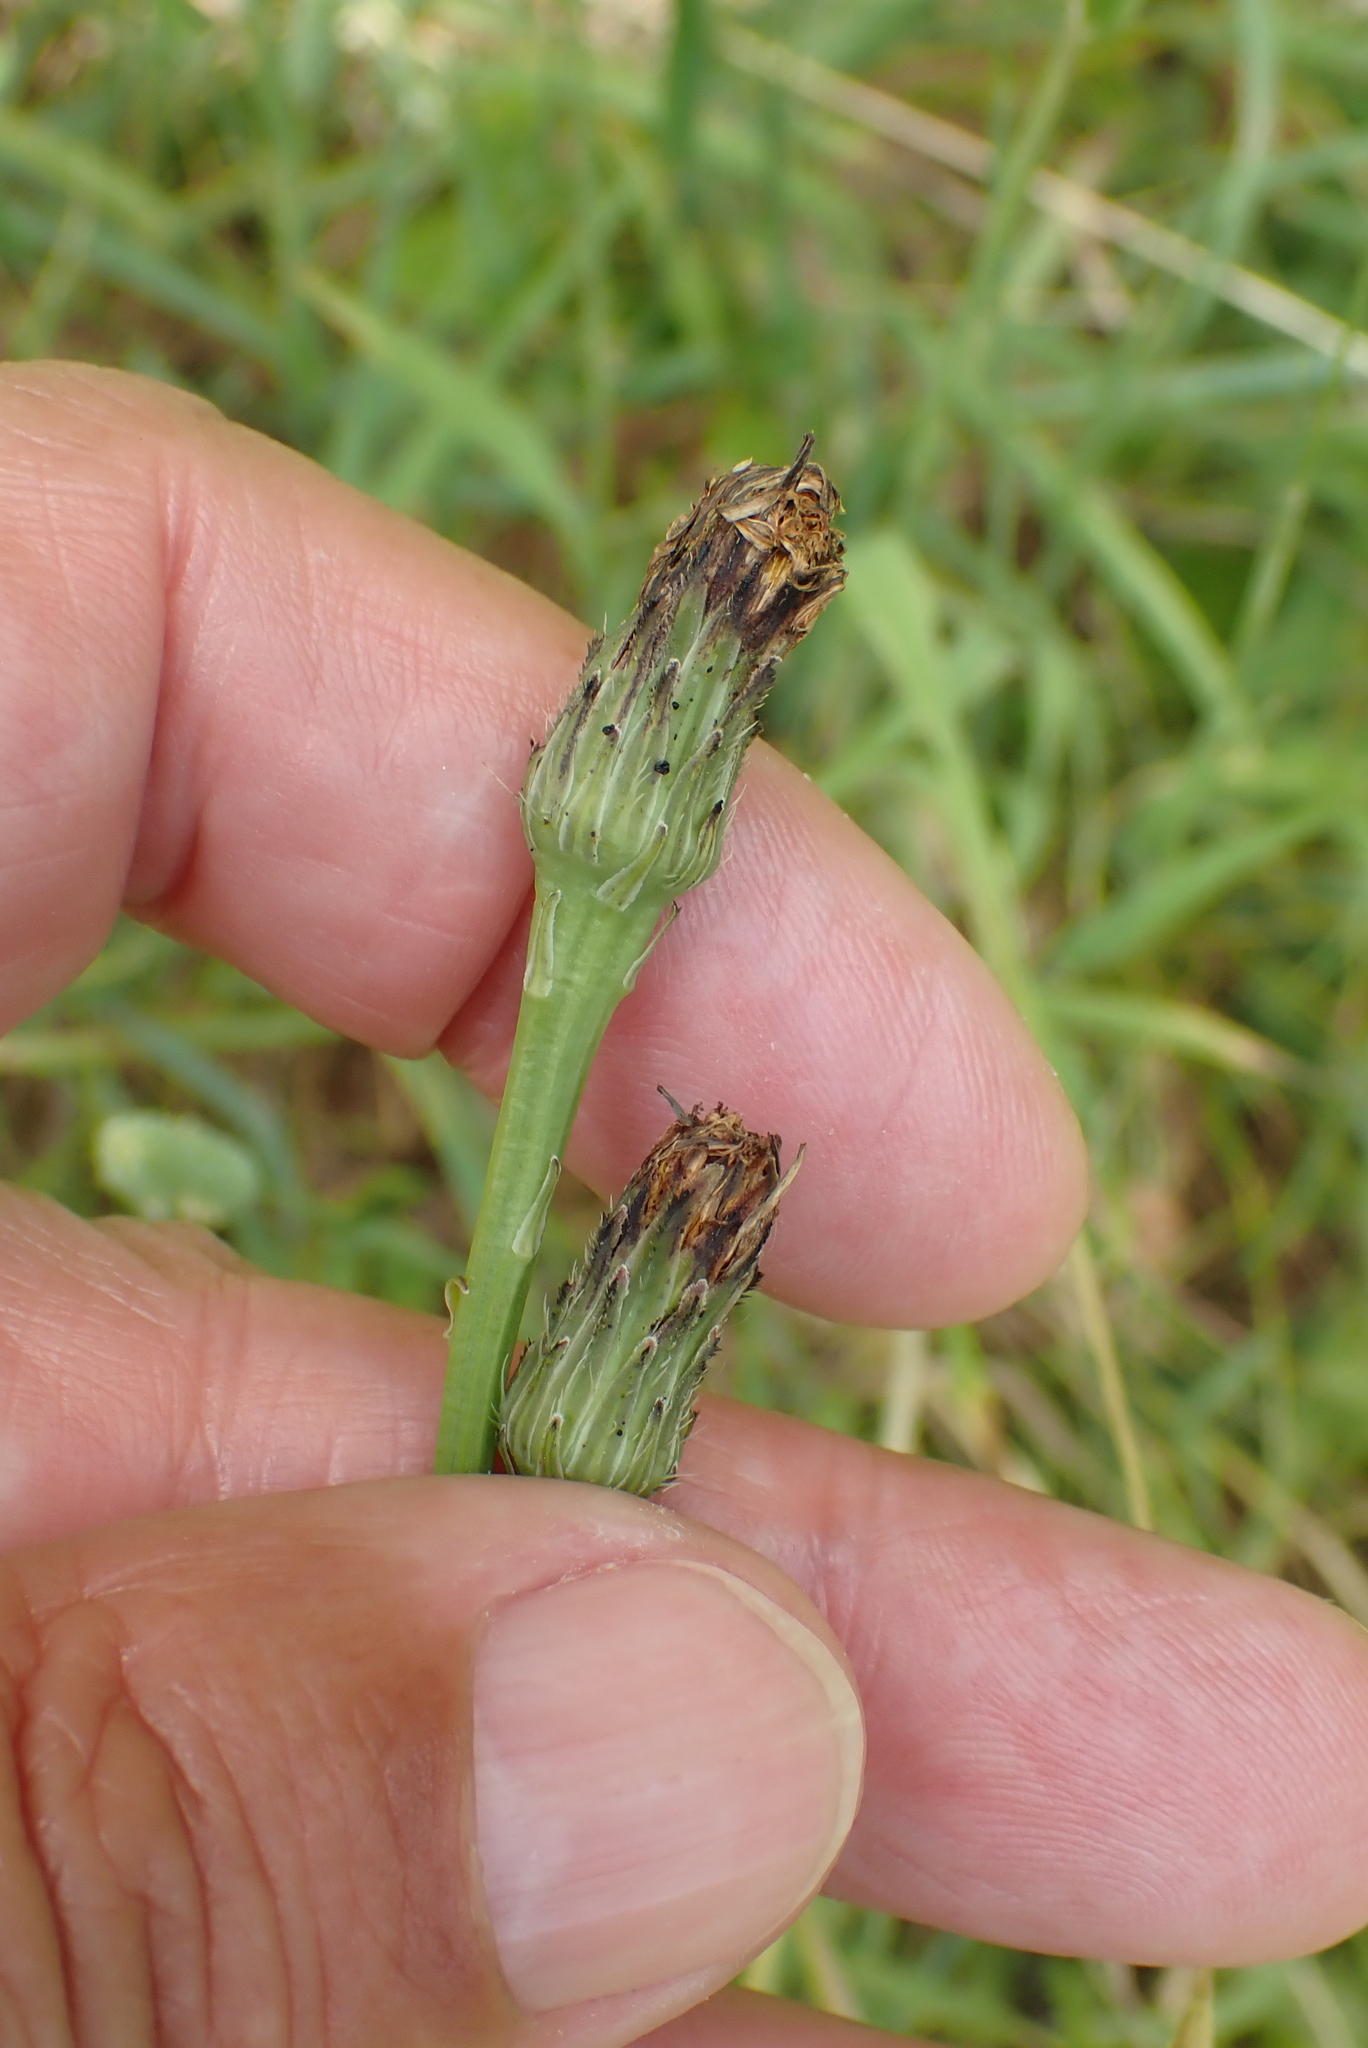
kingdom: Plantae
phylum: Tracheophyta
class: Magnoliopsida
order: Asterales
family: Asteraceae
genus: Hypochaeris
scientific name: Hypochaeris radicata
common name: Flatweed
